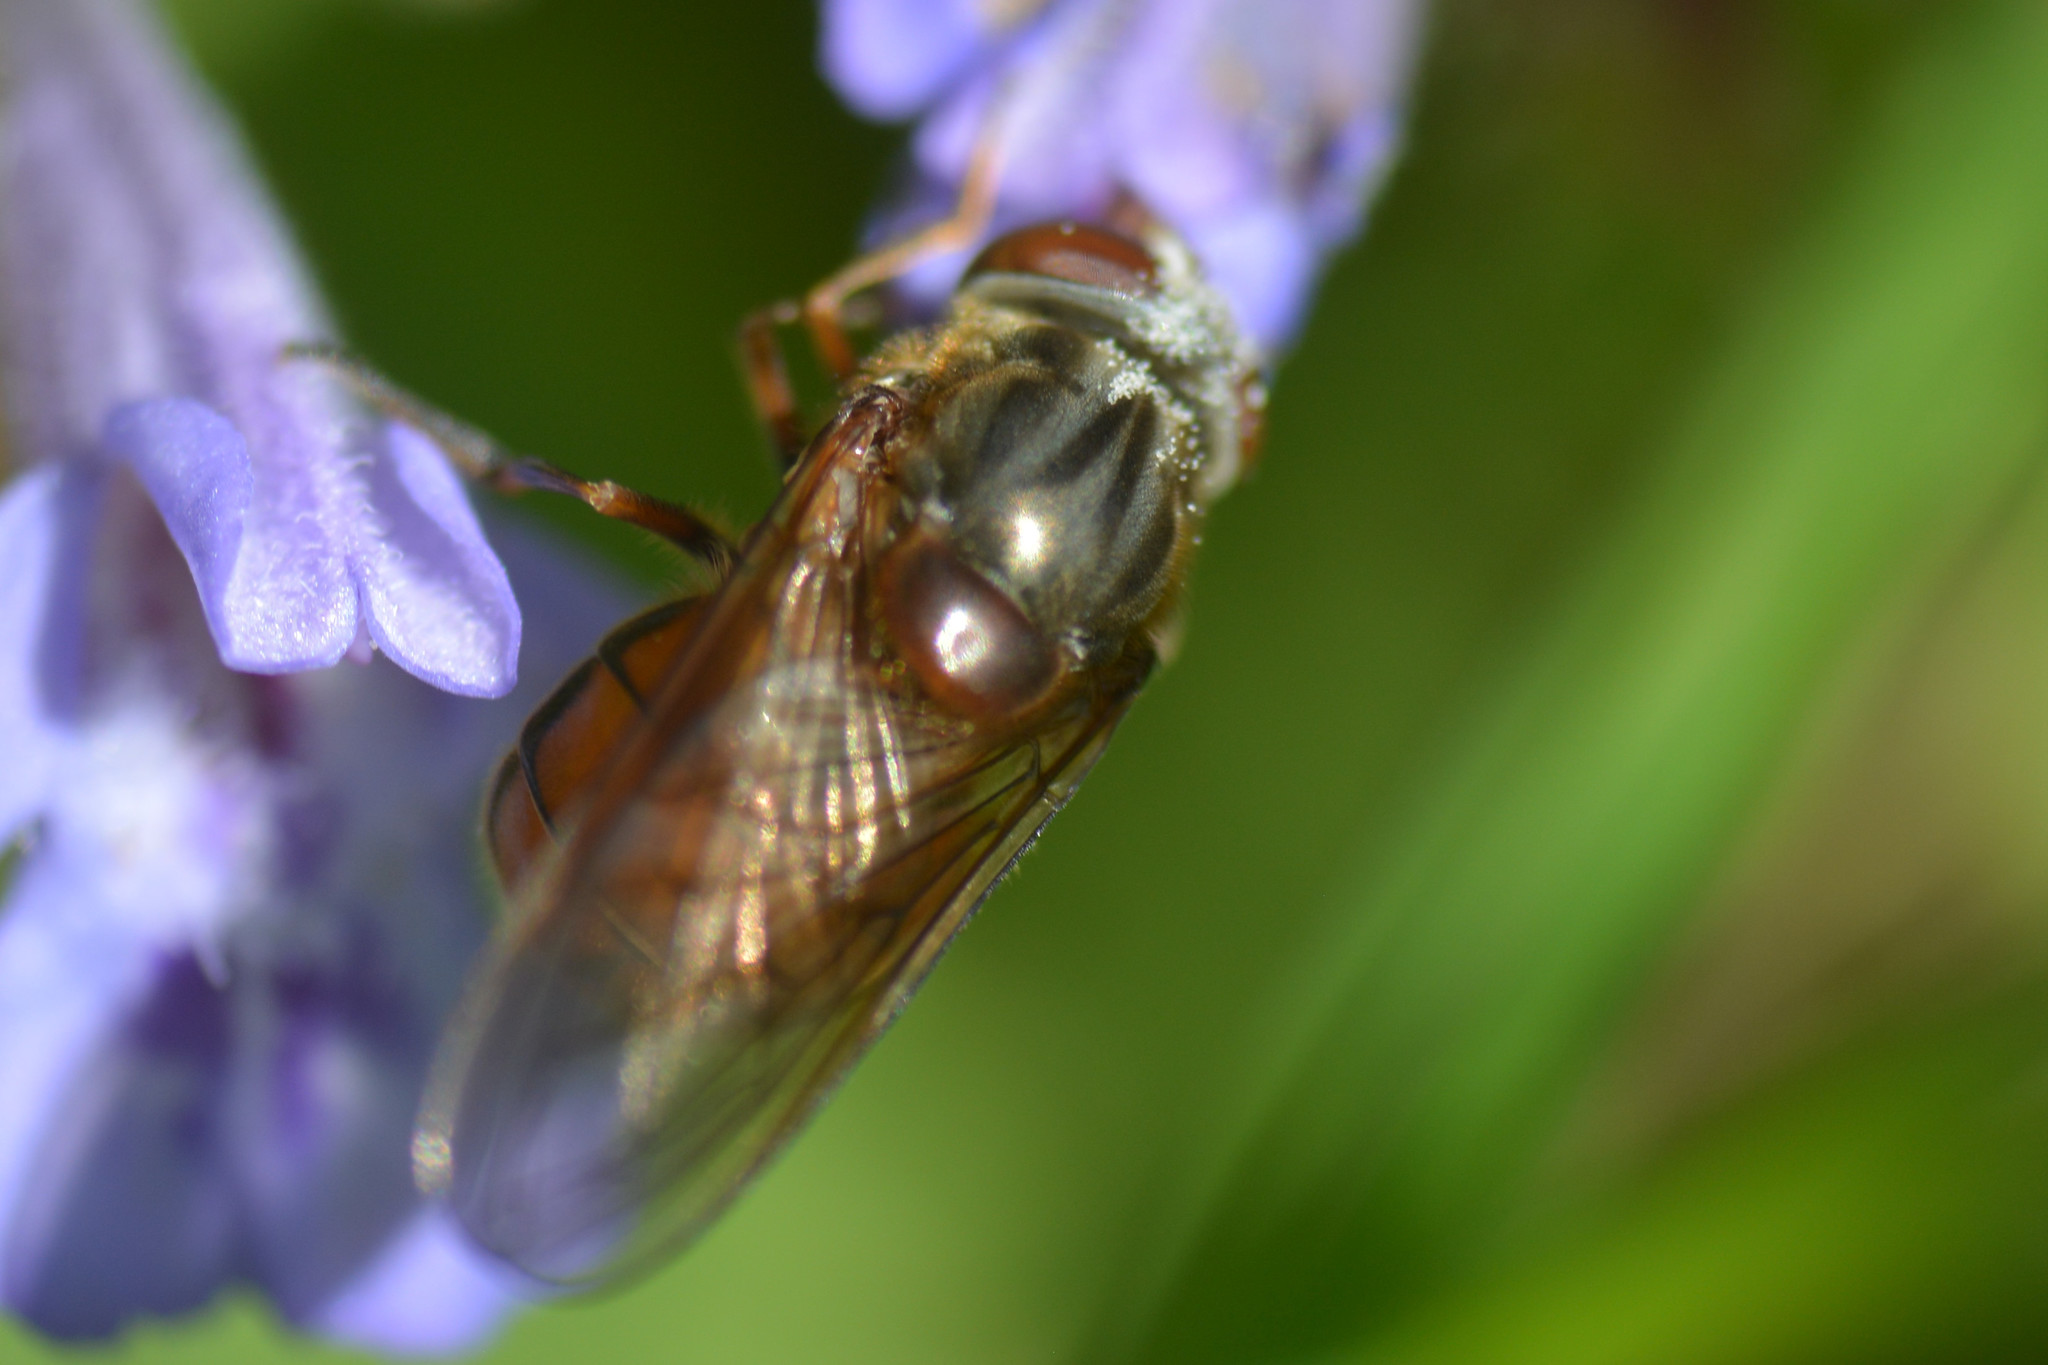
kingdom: Animalia
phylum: Arthropoda
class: Insecta
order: Diptera
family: Syrphidae
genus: Rhingia
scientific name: Rhingia campestris
